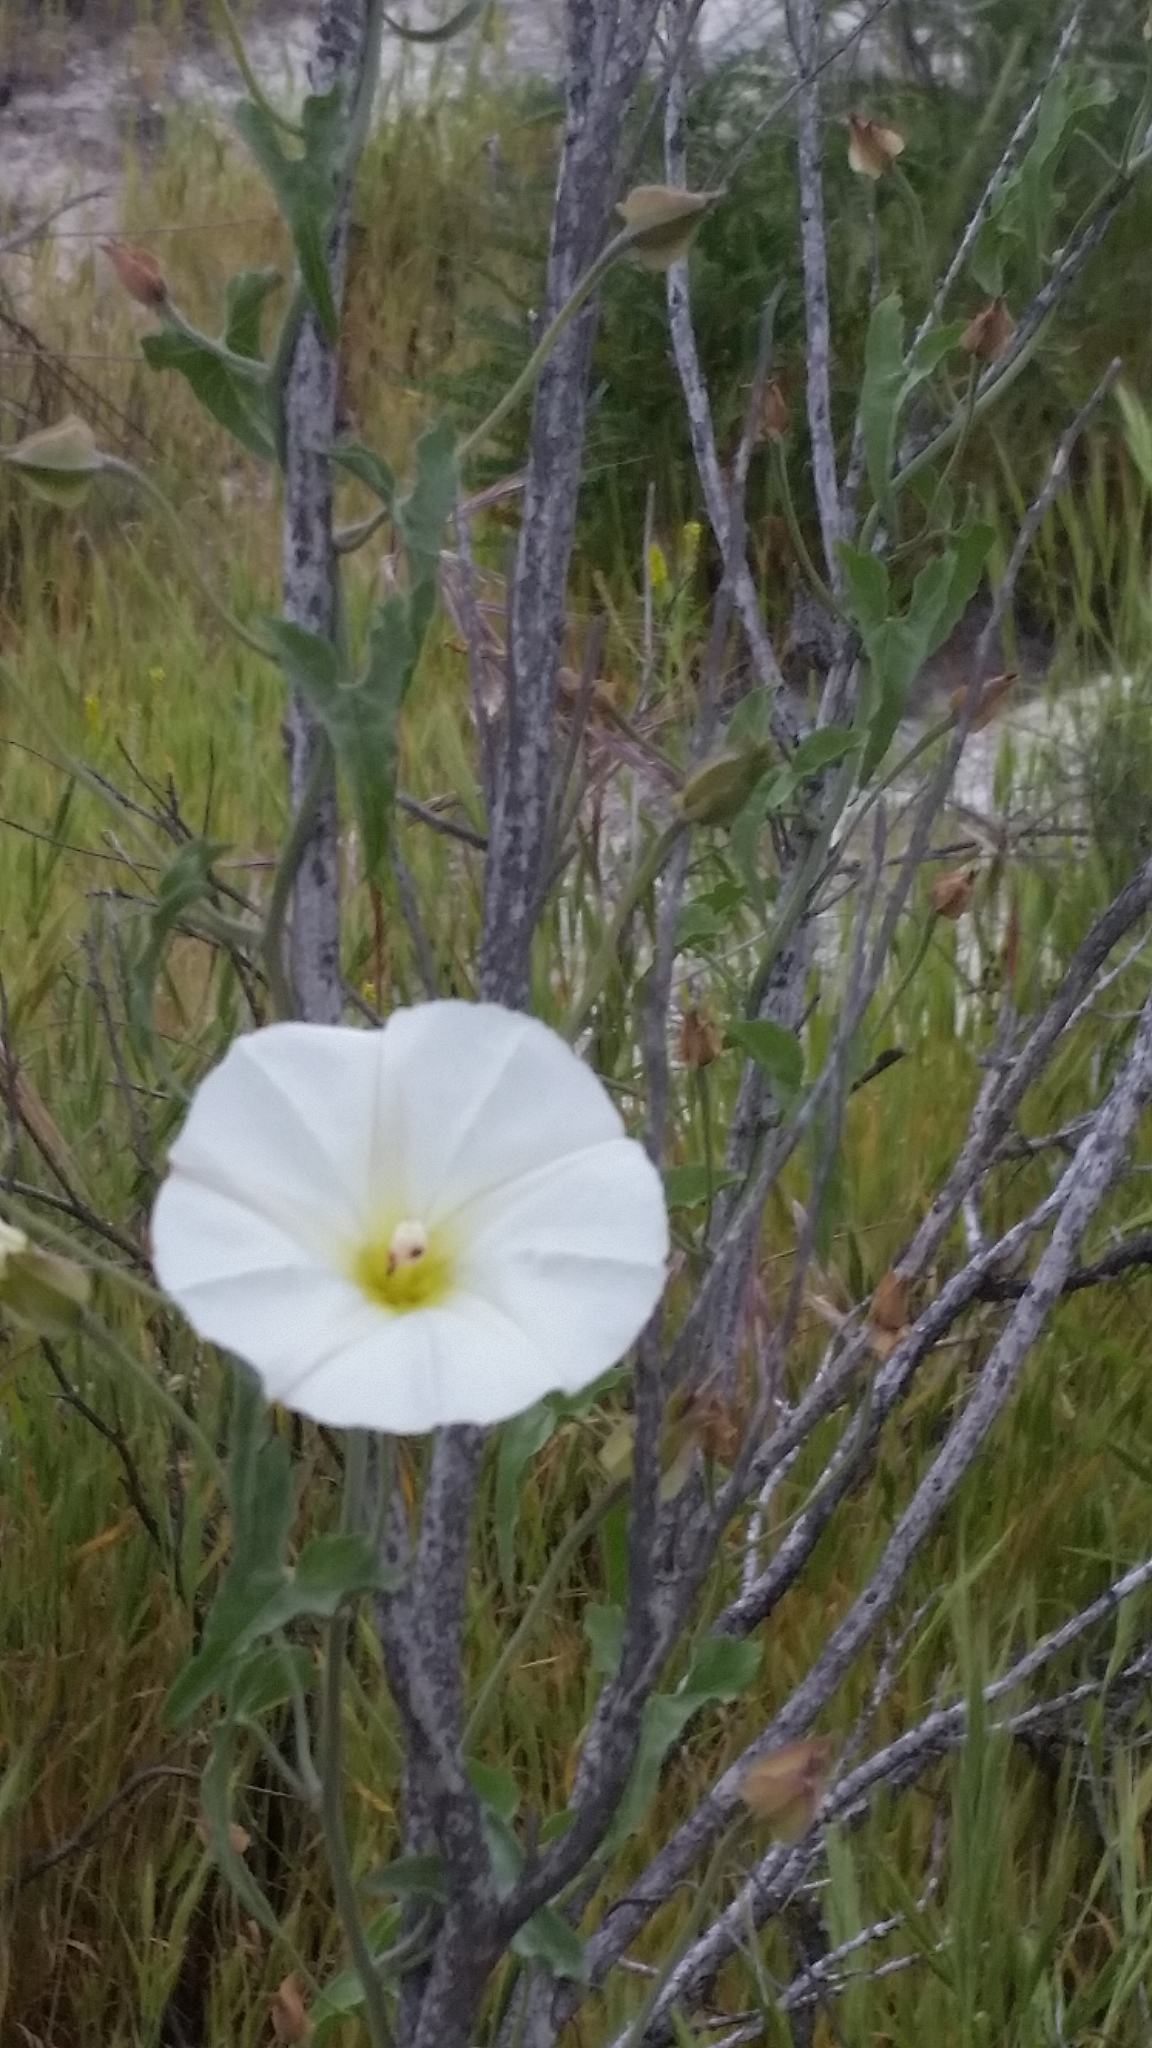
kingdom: Plantae
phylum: Tracheophyta
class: Magnoliopsida
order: Solanales
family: Convolvulaceae
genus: Calystegia
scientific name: Calystegia macrostegia
